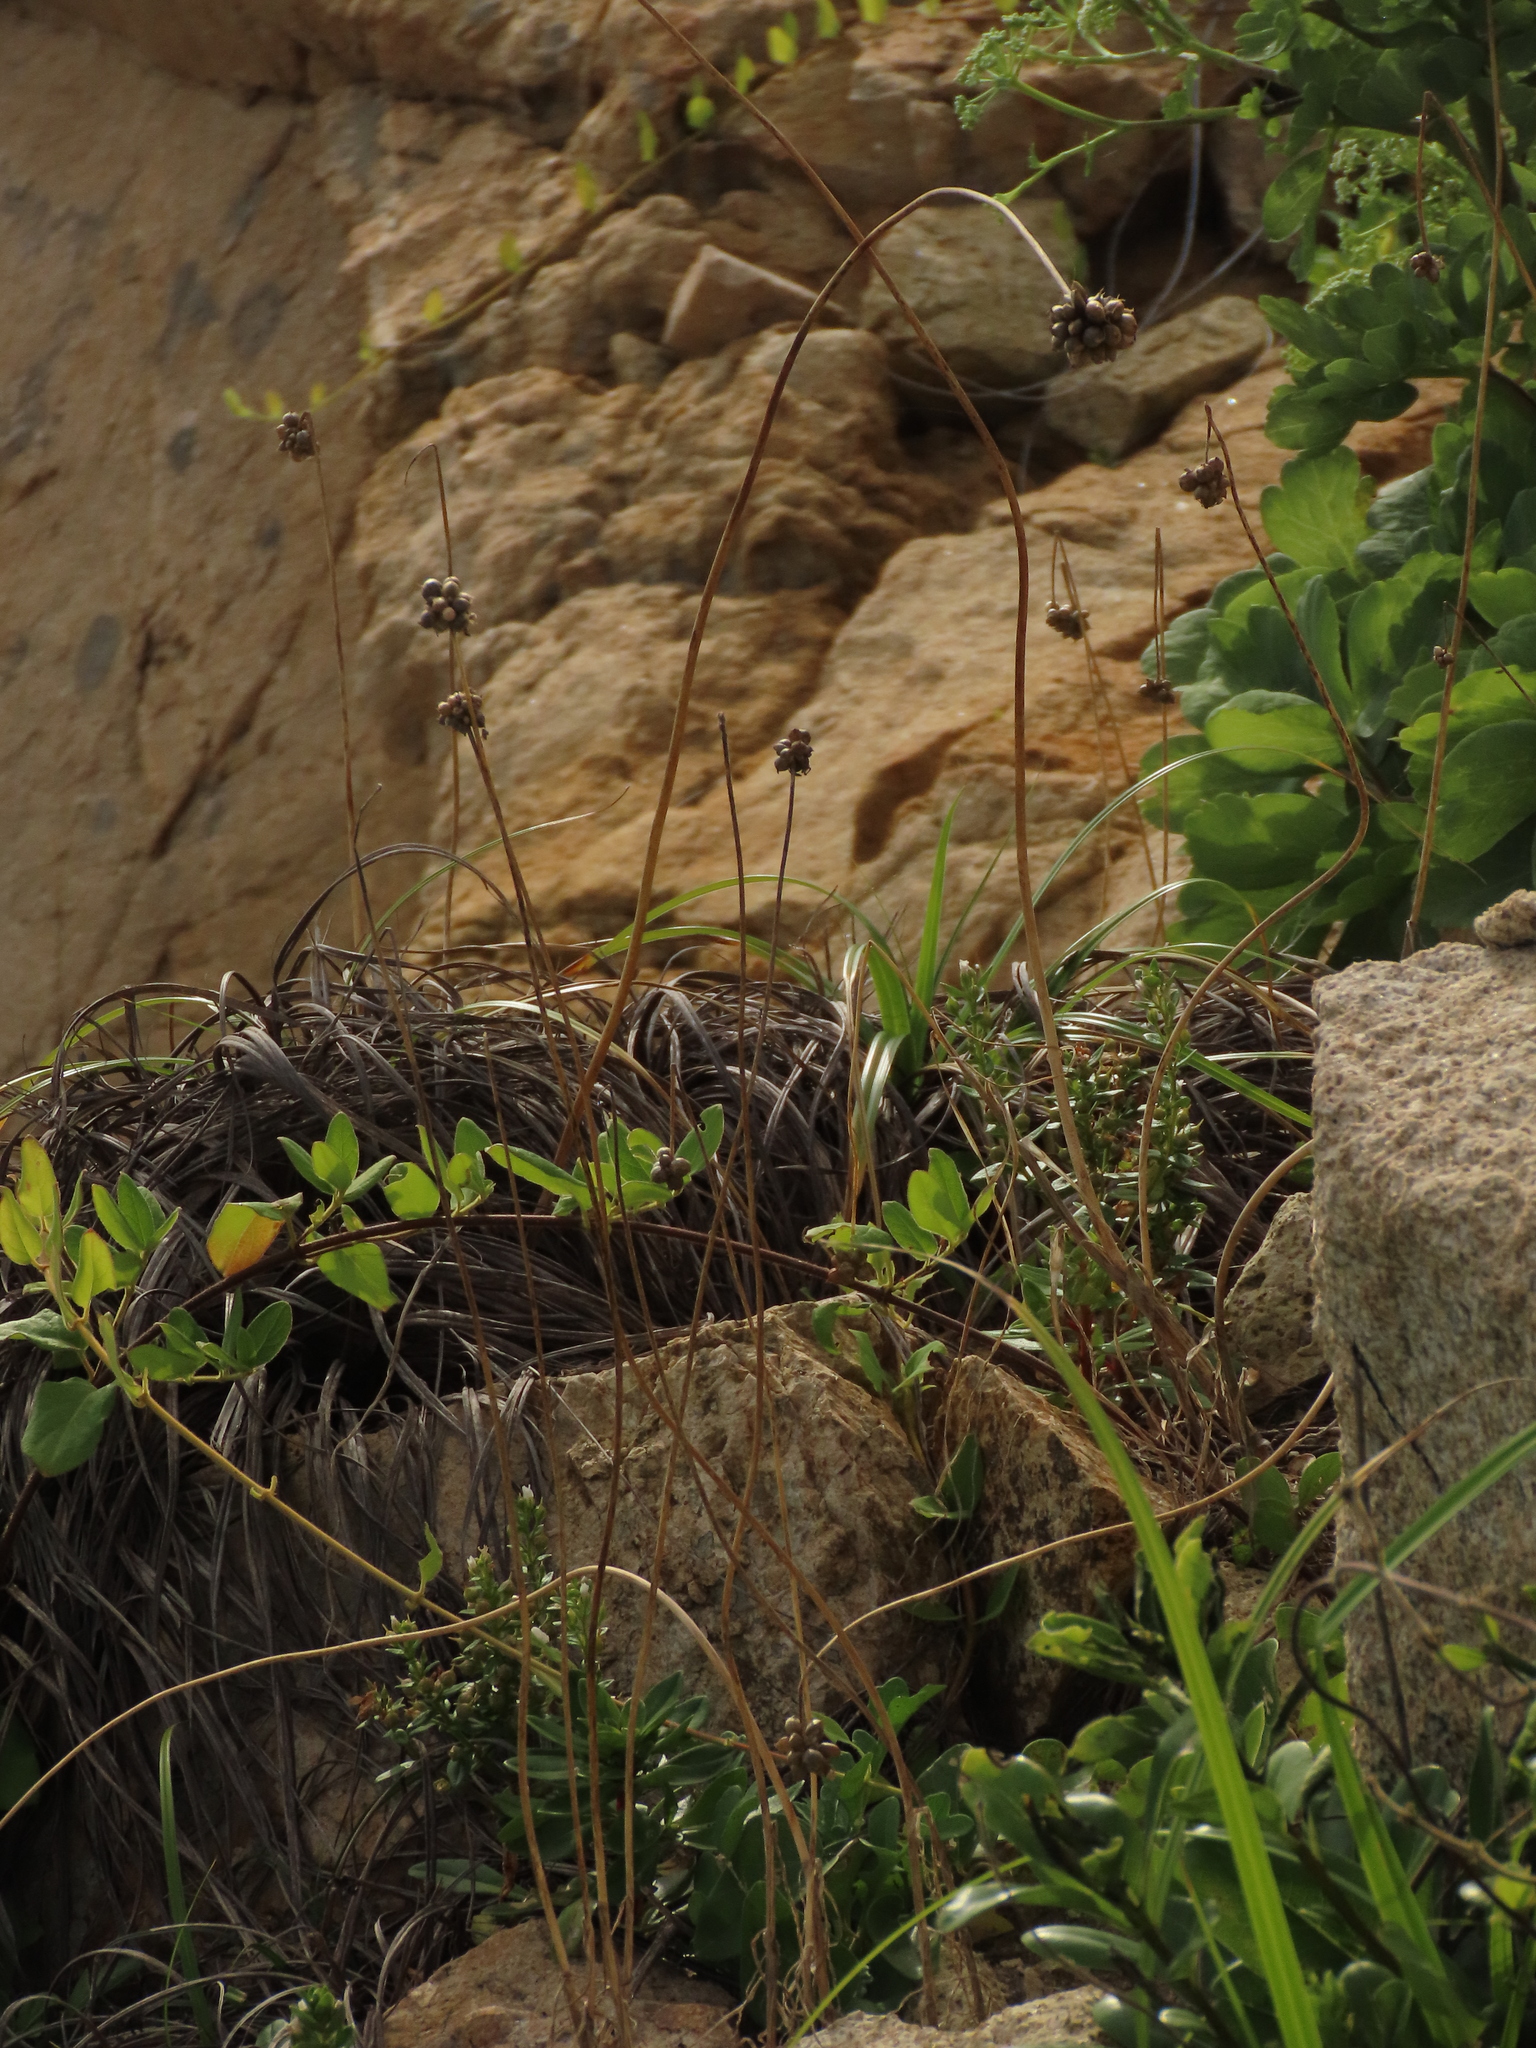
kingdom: Plantae
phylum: Tracheophyta
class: Liliopsida
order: Asparagales
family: Amaryllidaceae
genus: Allium
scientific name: Allium macrostemon
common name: Chinese garlic
